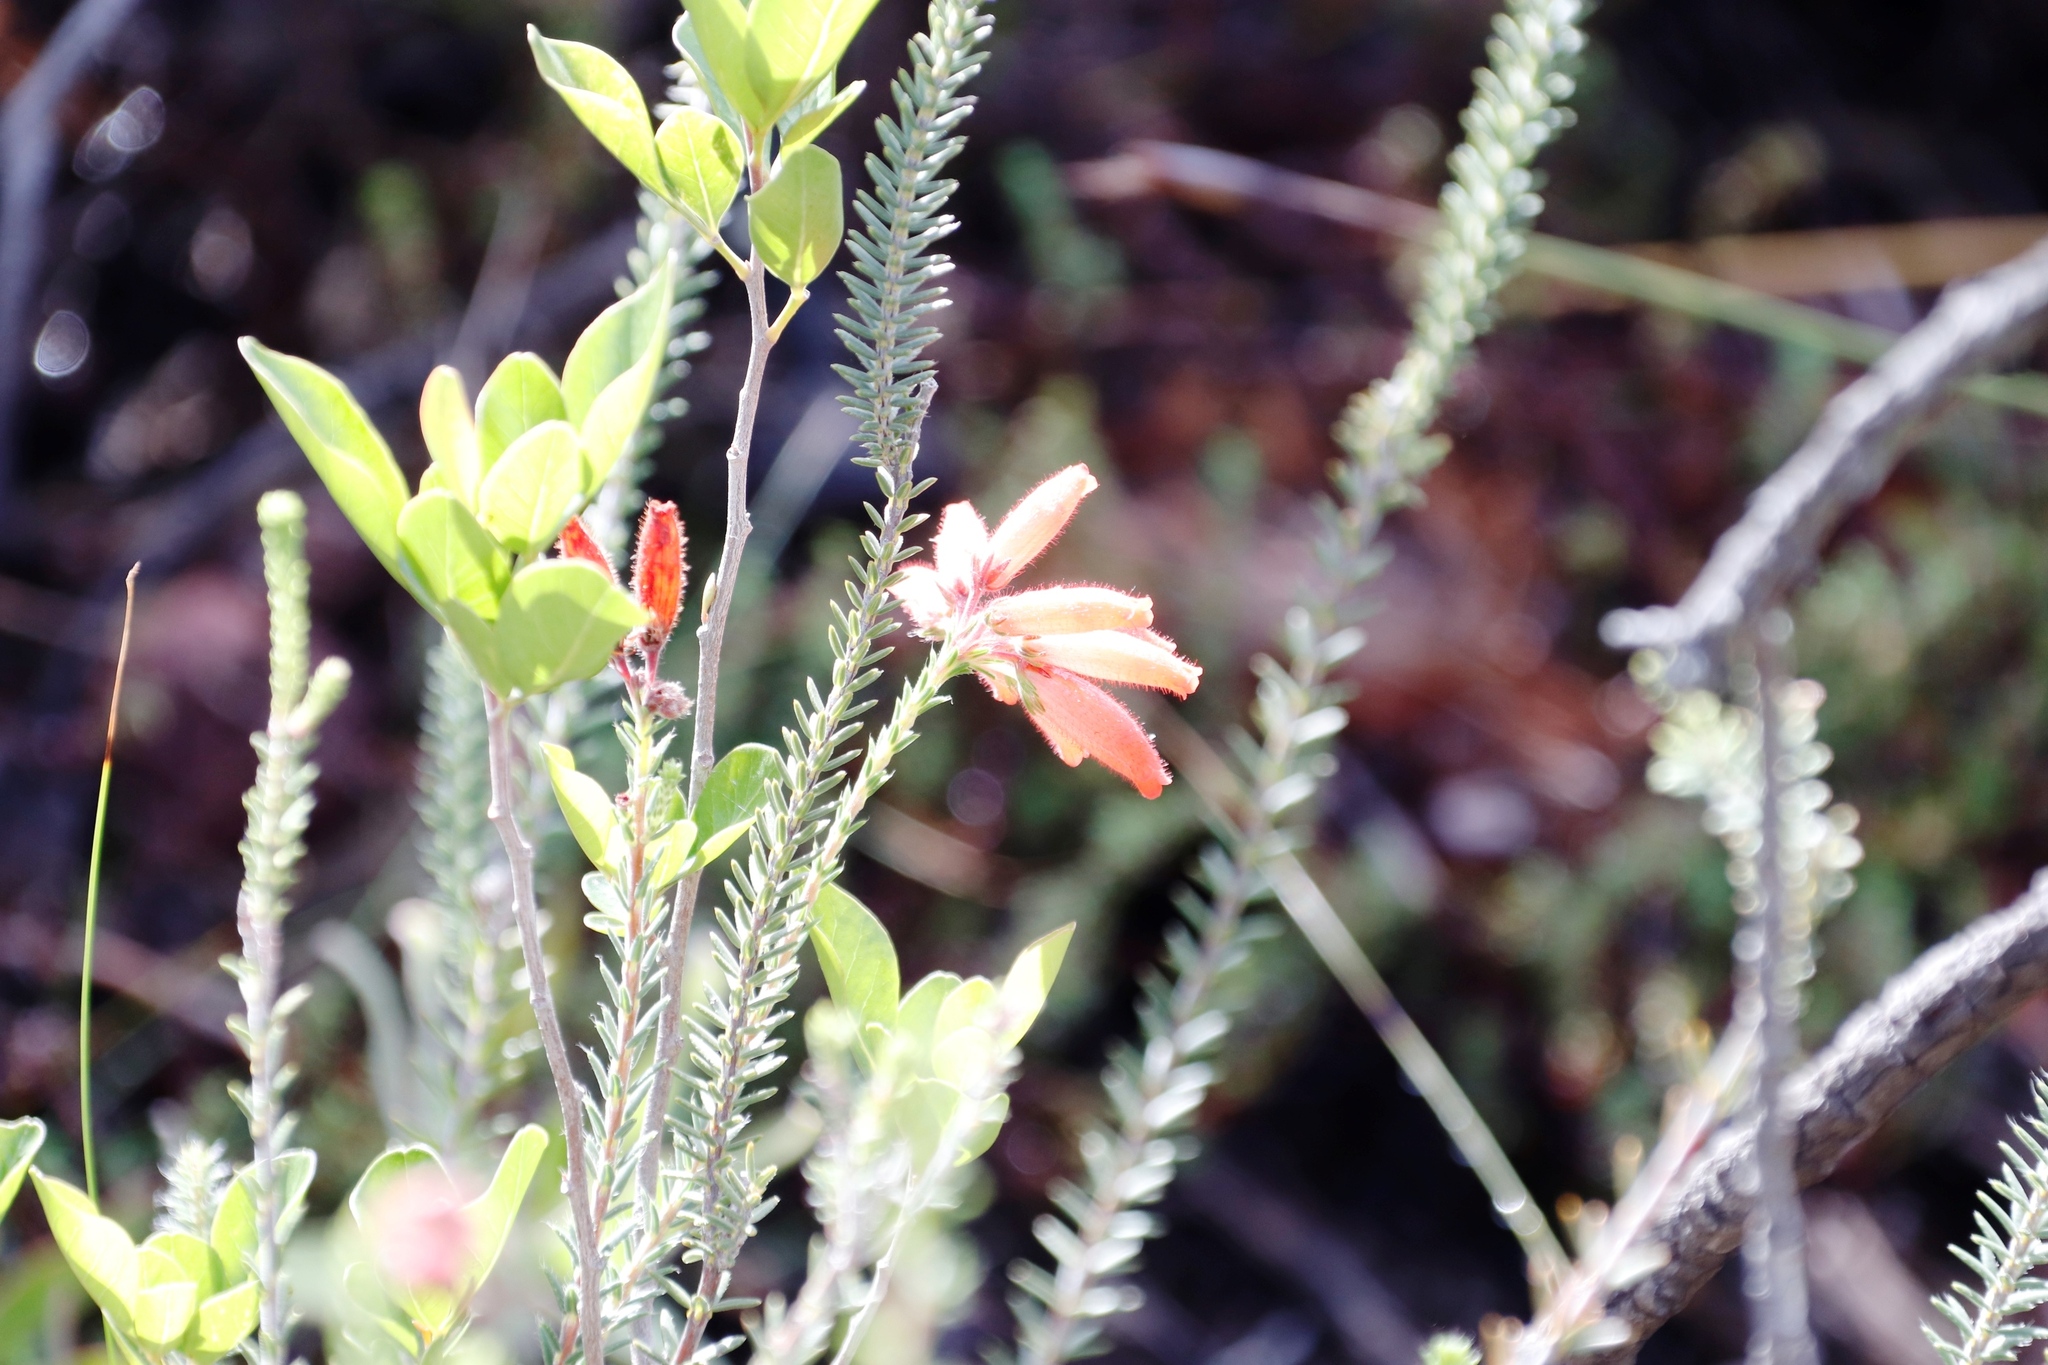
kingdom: Plantae
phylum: Tracheophyta
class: Magnoliopsida
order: Ericales
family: Ericaceae
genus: Erica
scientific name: Erica cerinthoides
